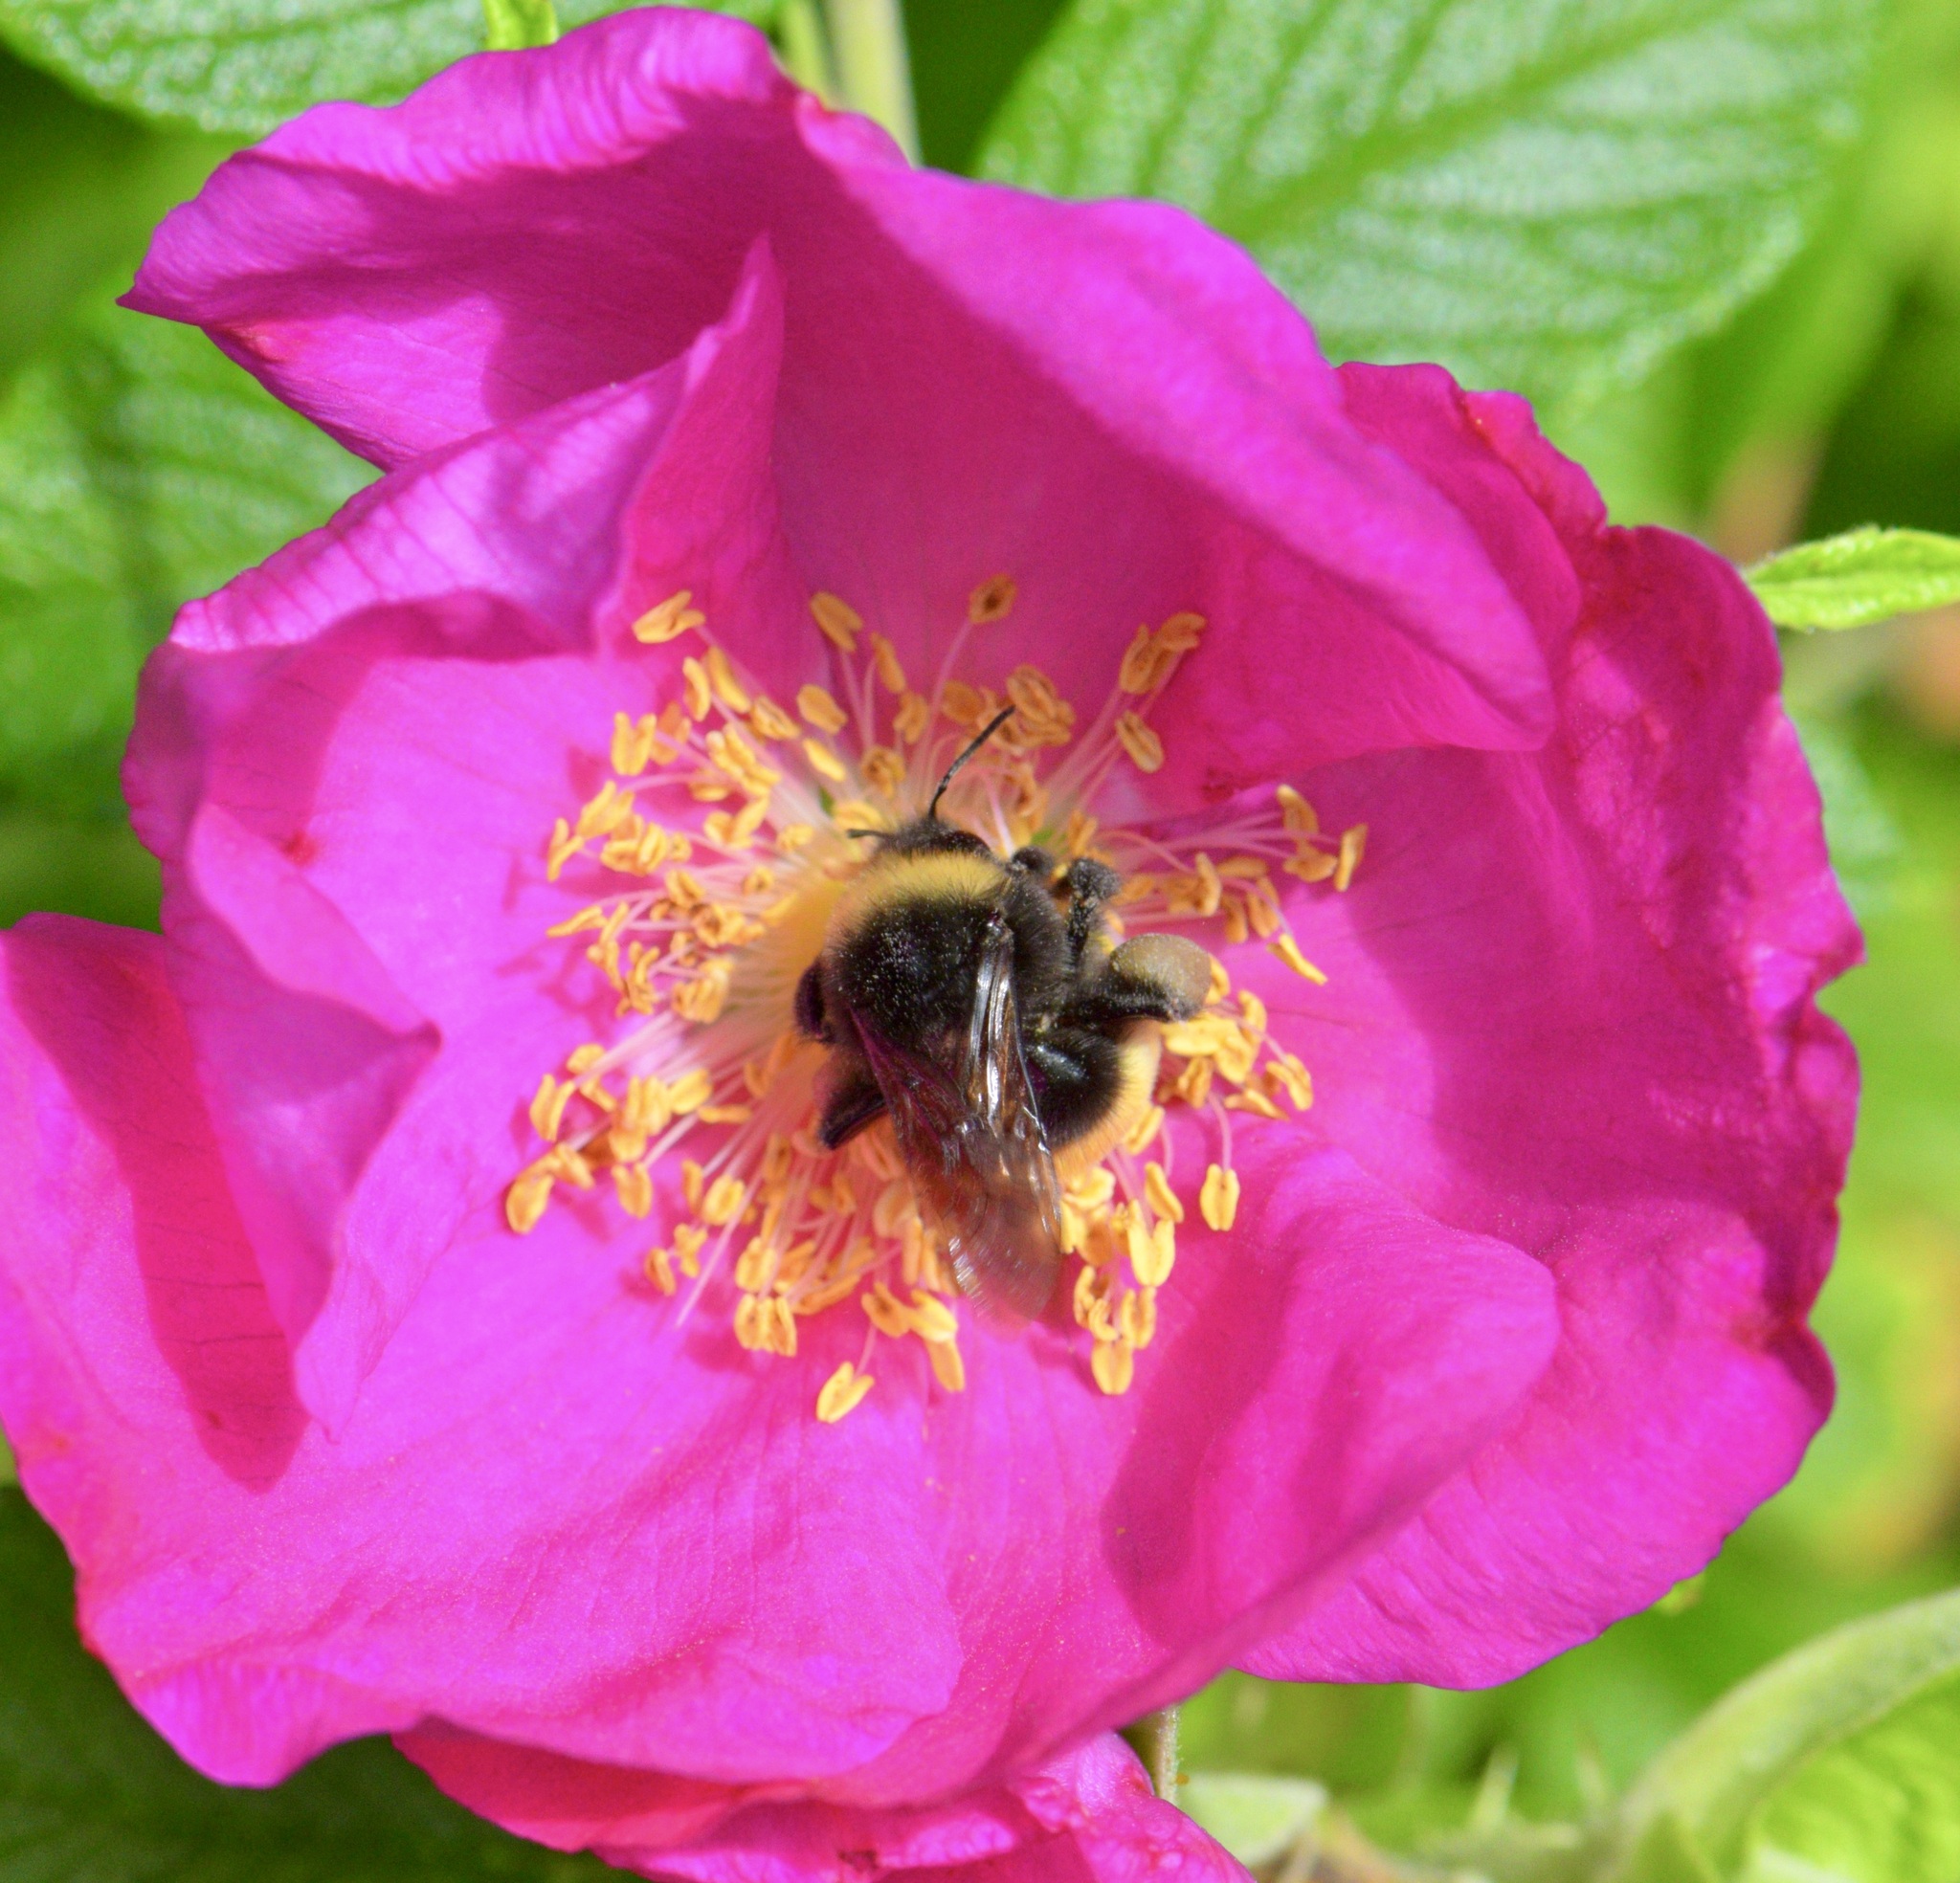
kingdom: Animalia
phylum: Arthropoda
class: Insecta
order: Hymenoptera
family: Apidae
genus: Bombus
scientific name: Bombus terricola
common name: Yellow-banded bumble bee
